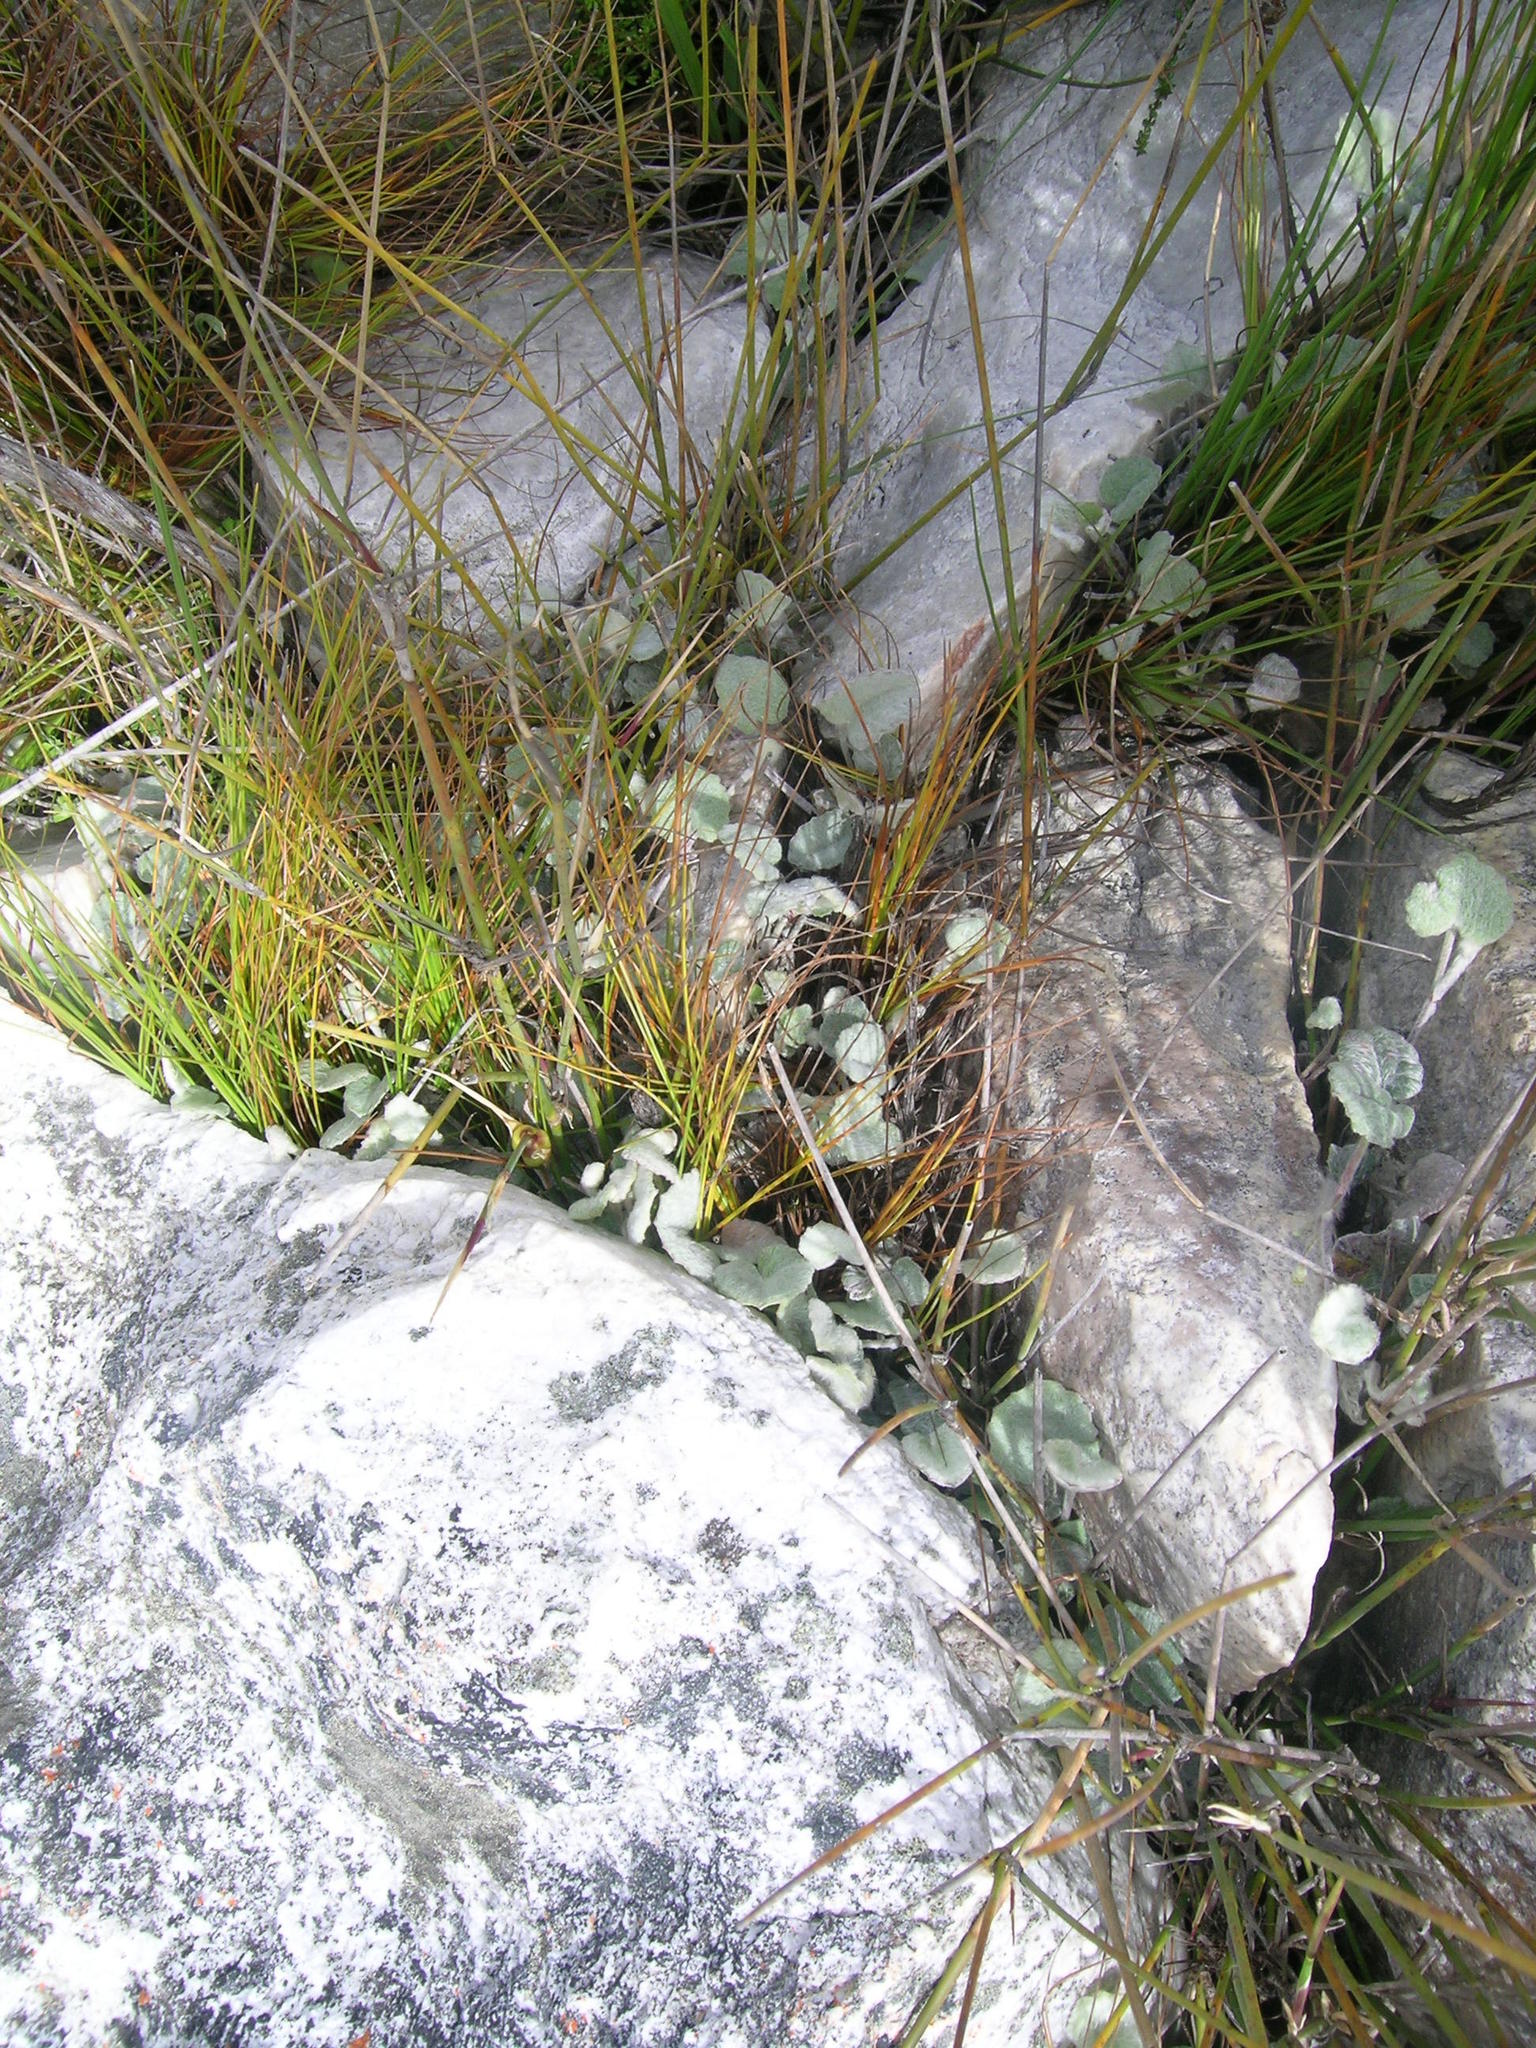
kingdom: Plantae
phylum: Tracheophyta
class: Magnoliopsida
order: Apiales
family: Apiaceae
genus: Centella
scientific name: Centella lanata
